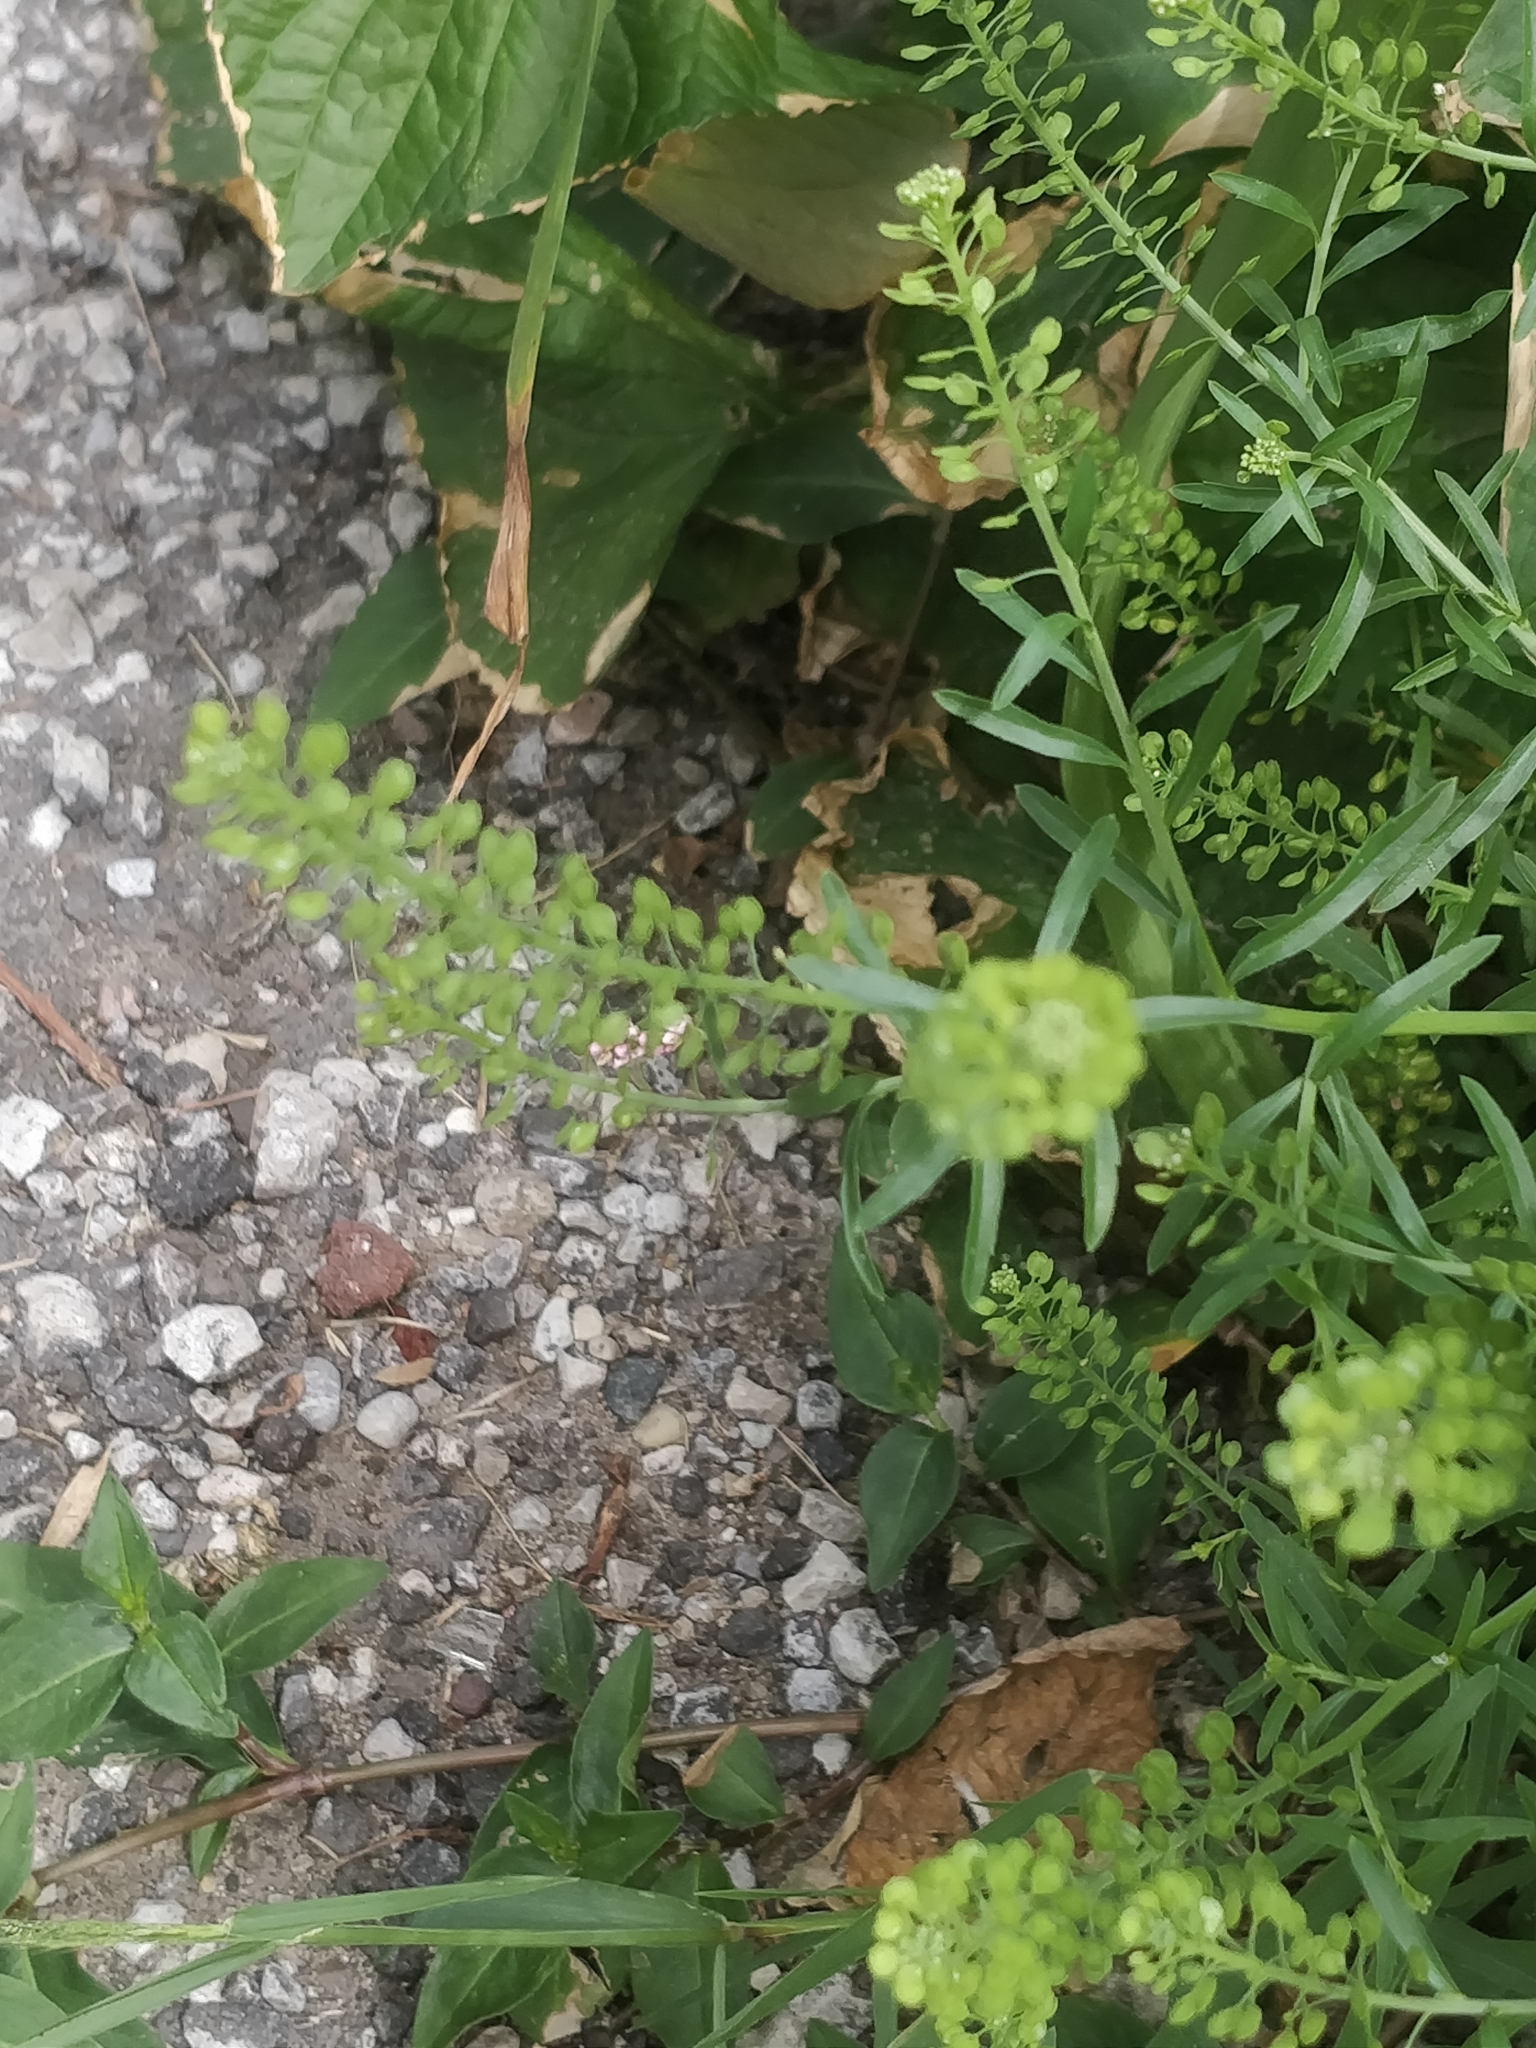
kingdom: Plantae
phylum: Tracheophyta
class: Magnoliopsida
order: Brassicales
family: Brassicaceae
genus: Lepidium
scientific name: Lepidium virginicum
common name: Least pepperwort
